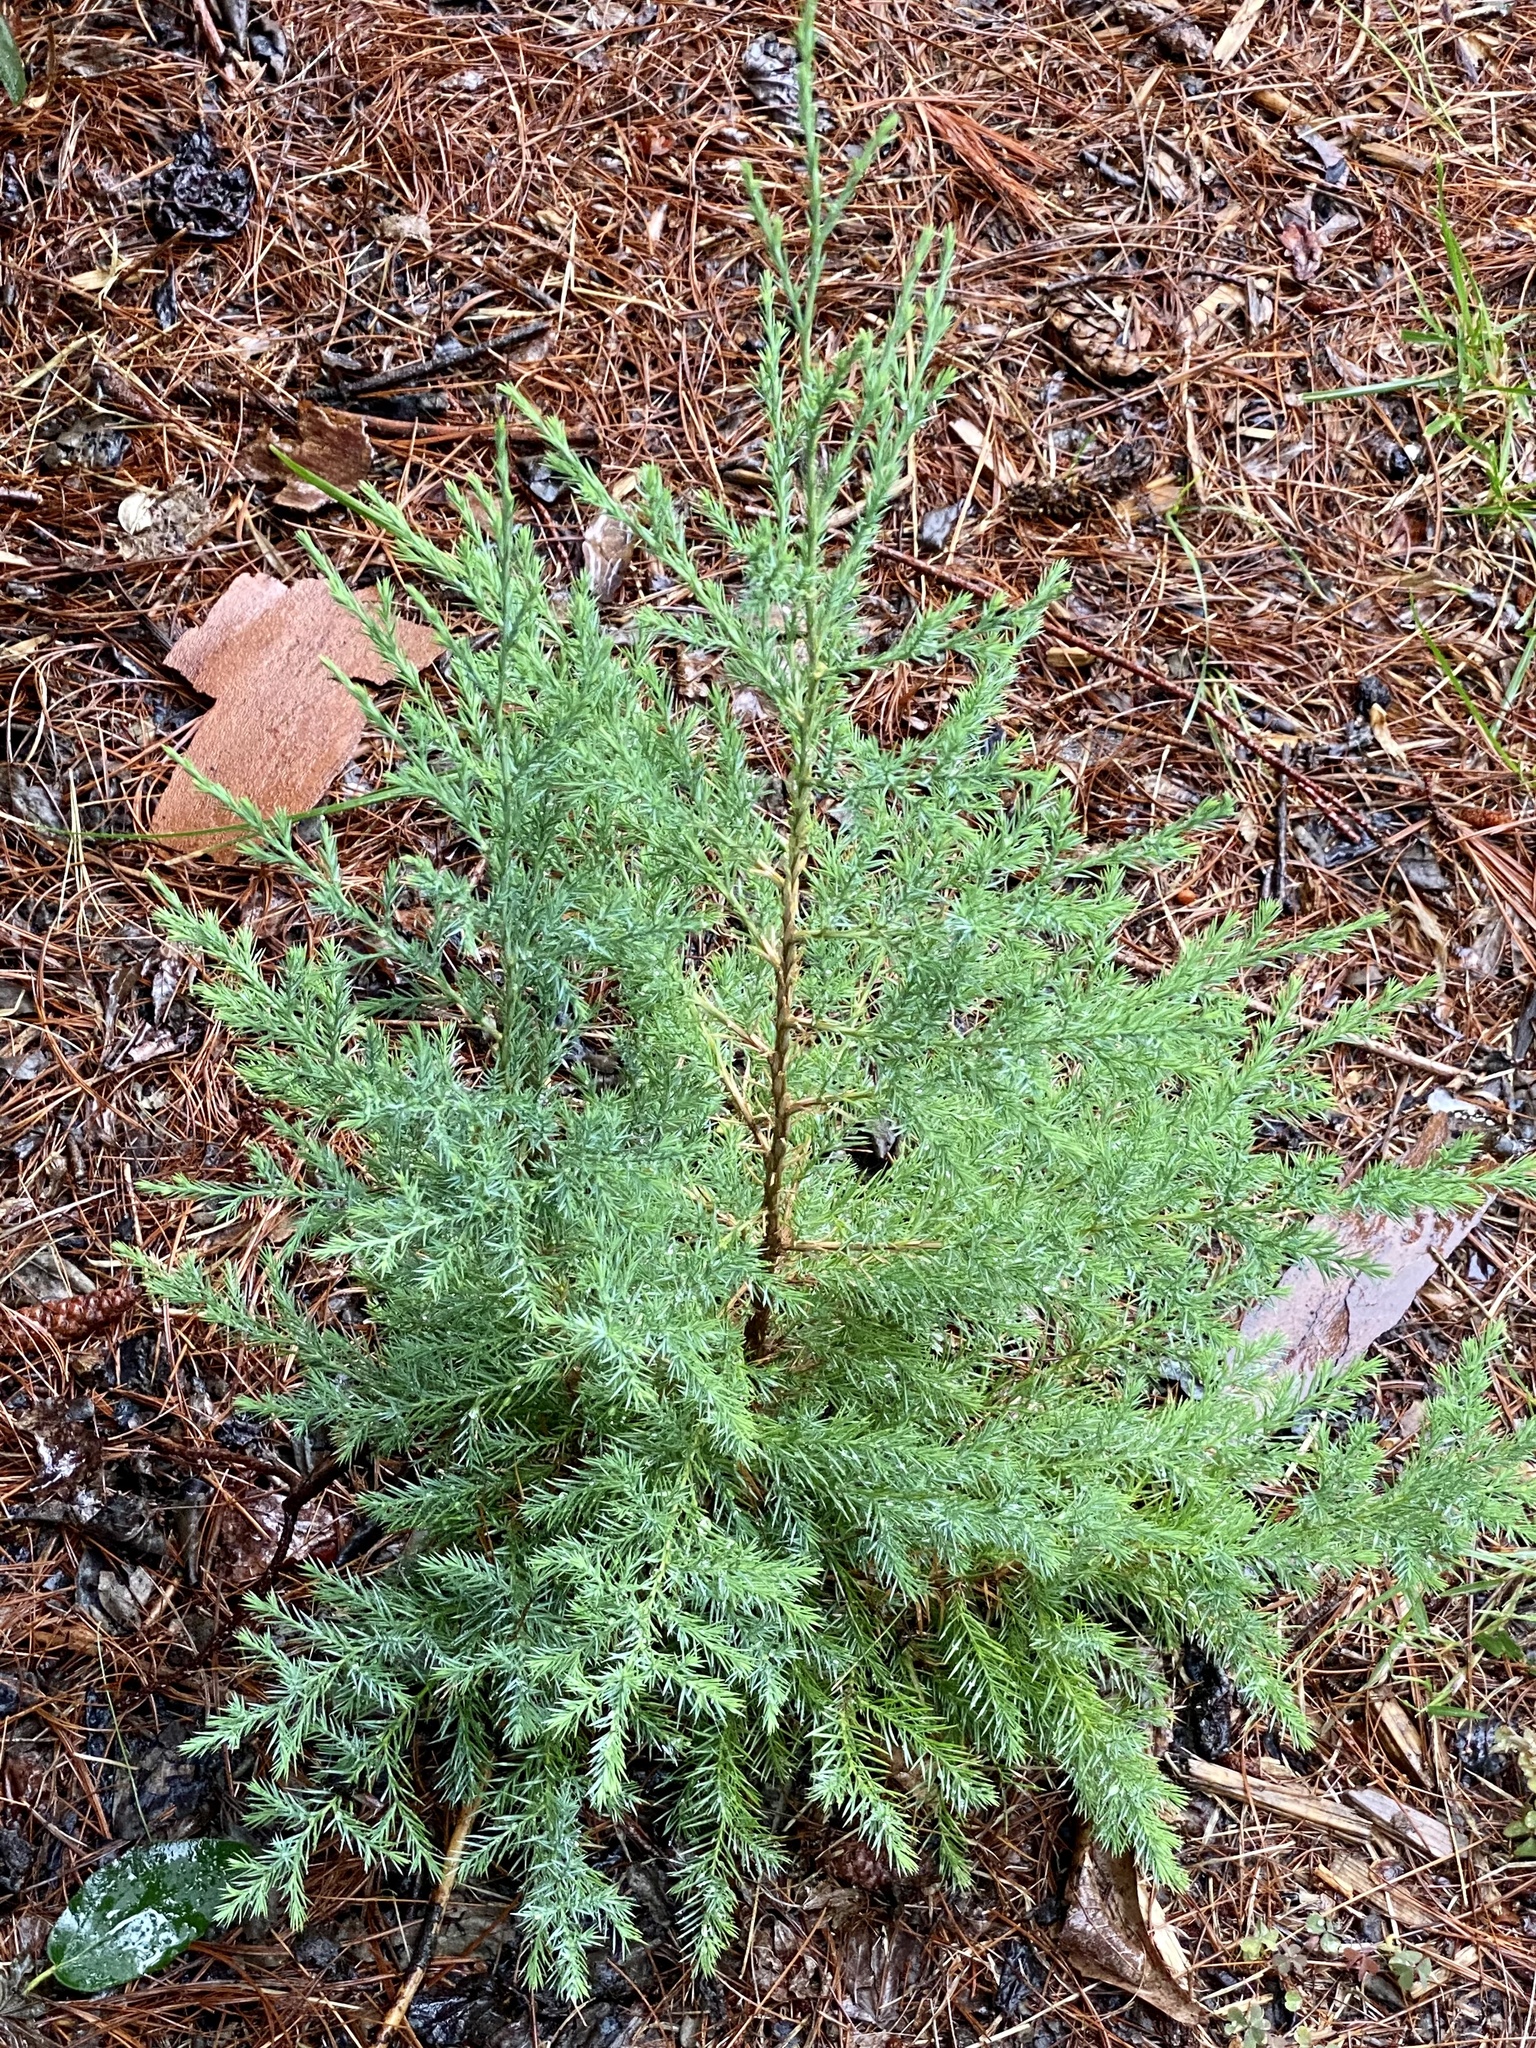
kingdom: Plantae
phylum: Tracheophyta
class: Pinopsida
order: Pinales
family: Cupressaceae
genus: Juniperus
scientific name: Juniperus virginiana
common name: Red juniper
